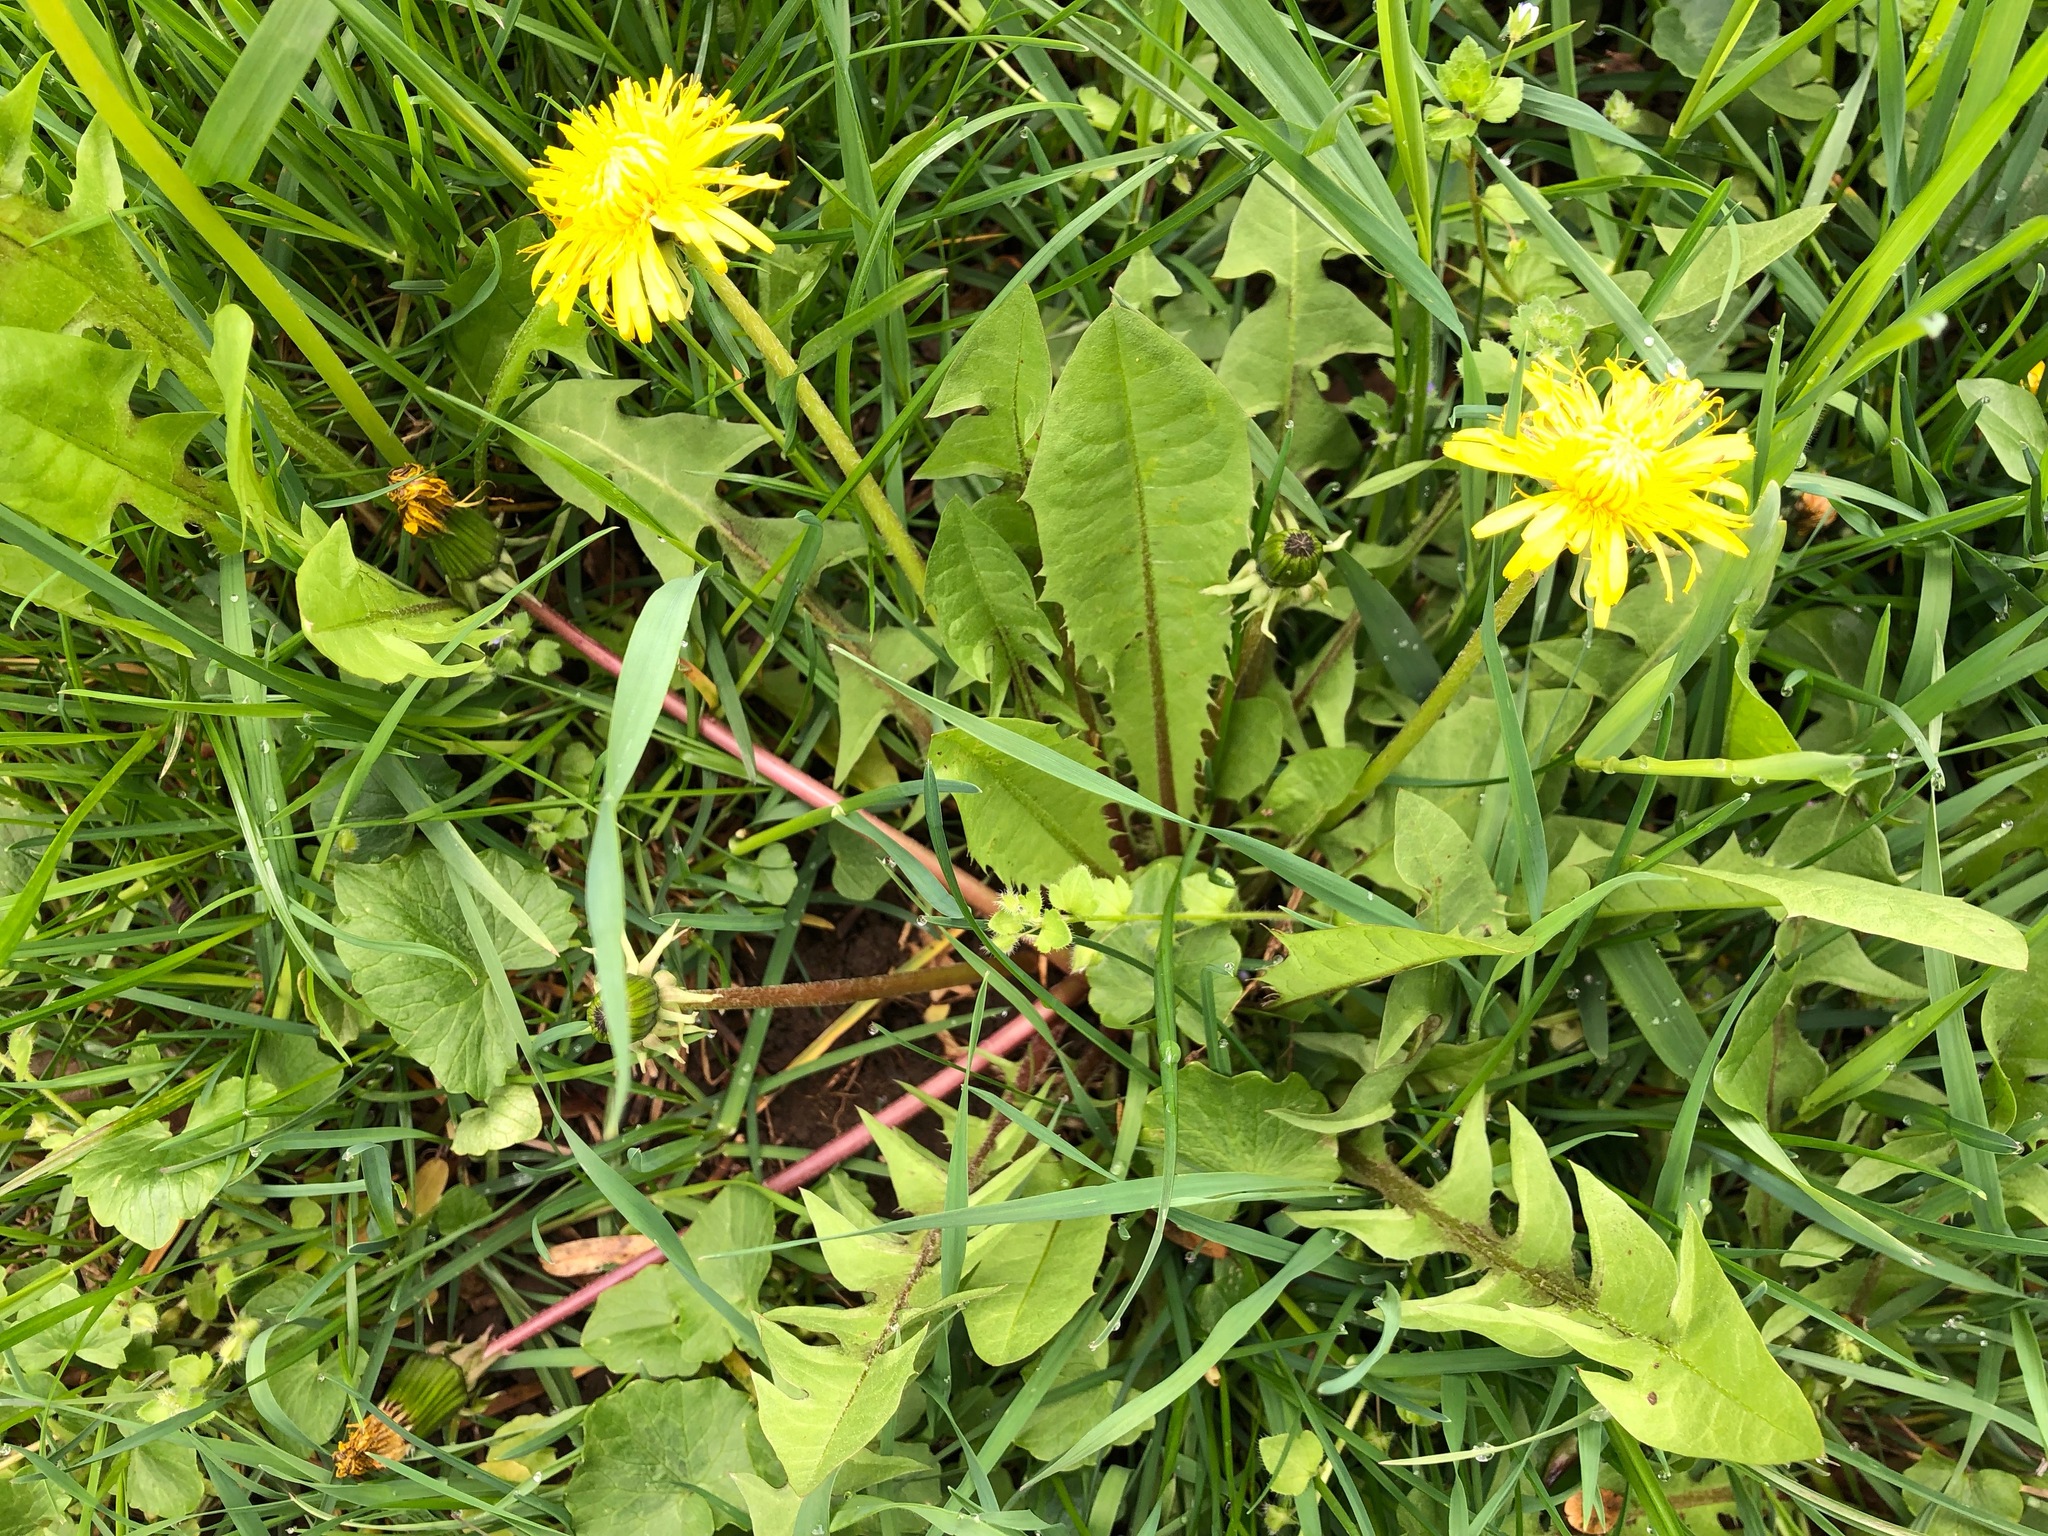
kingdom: Plantae
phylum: Tracheophyta
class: Magnoliopsida
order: Asterales
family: Asteraceae
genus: Taraxacum
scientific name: Taraxacum officinale
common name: Common dandelion
